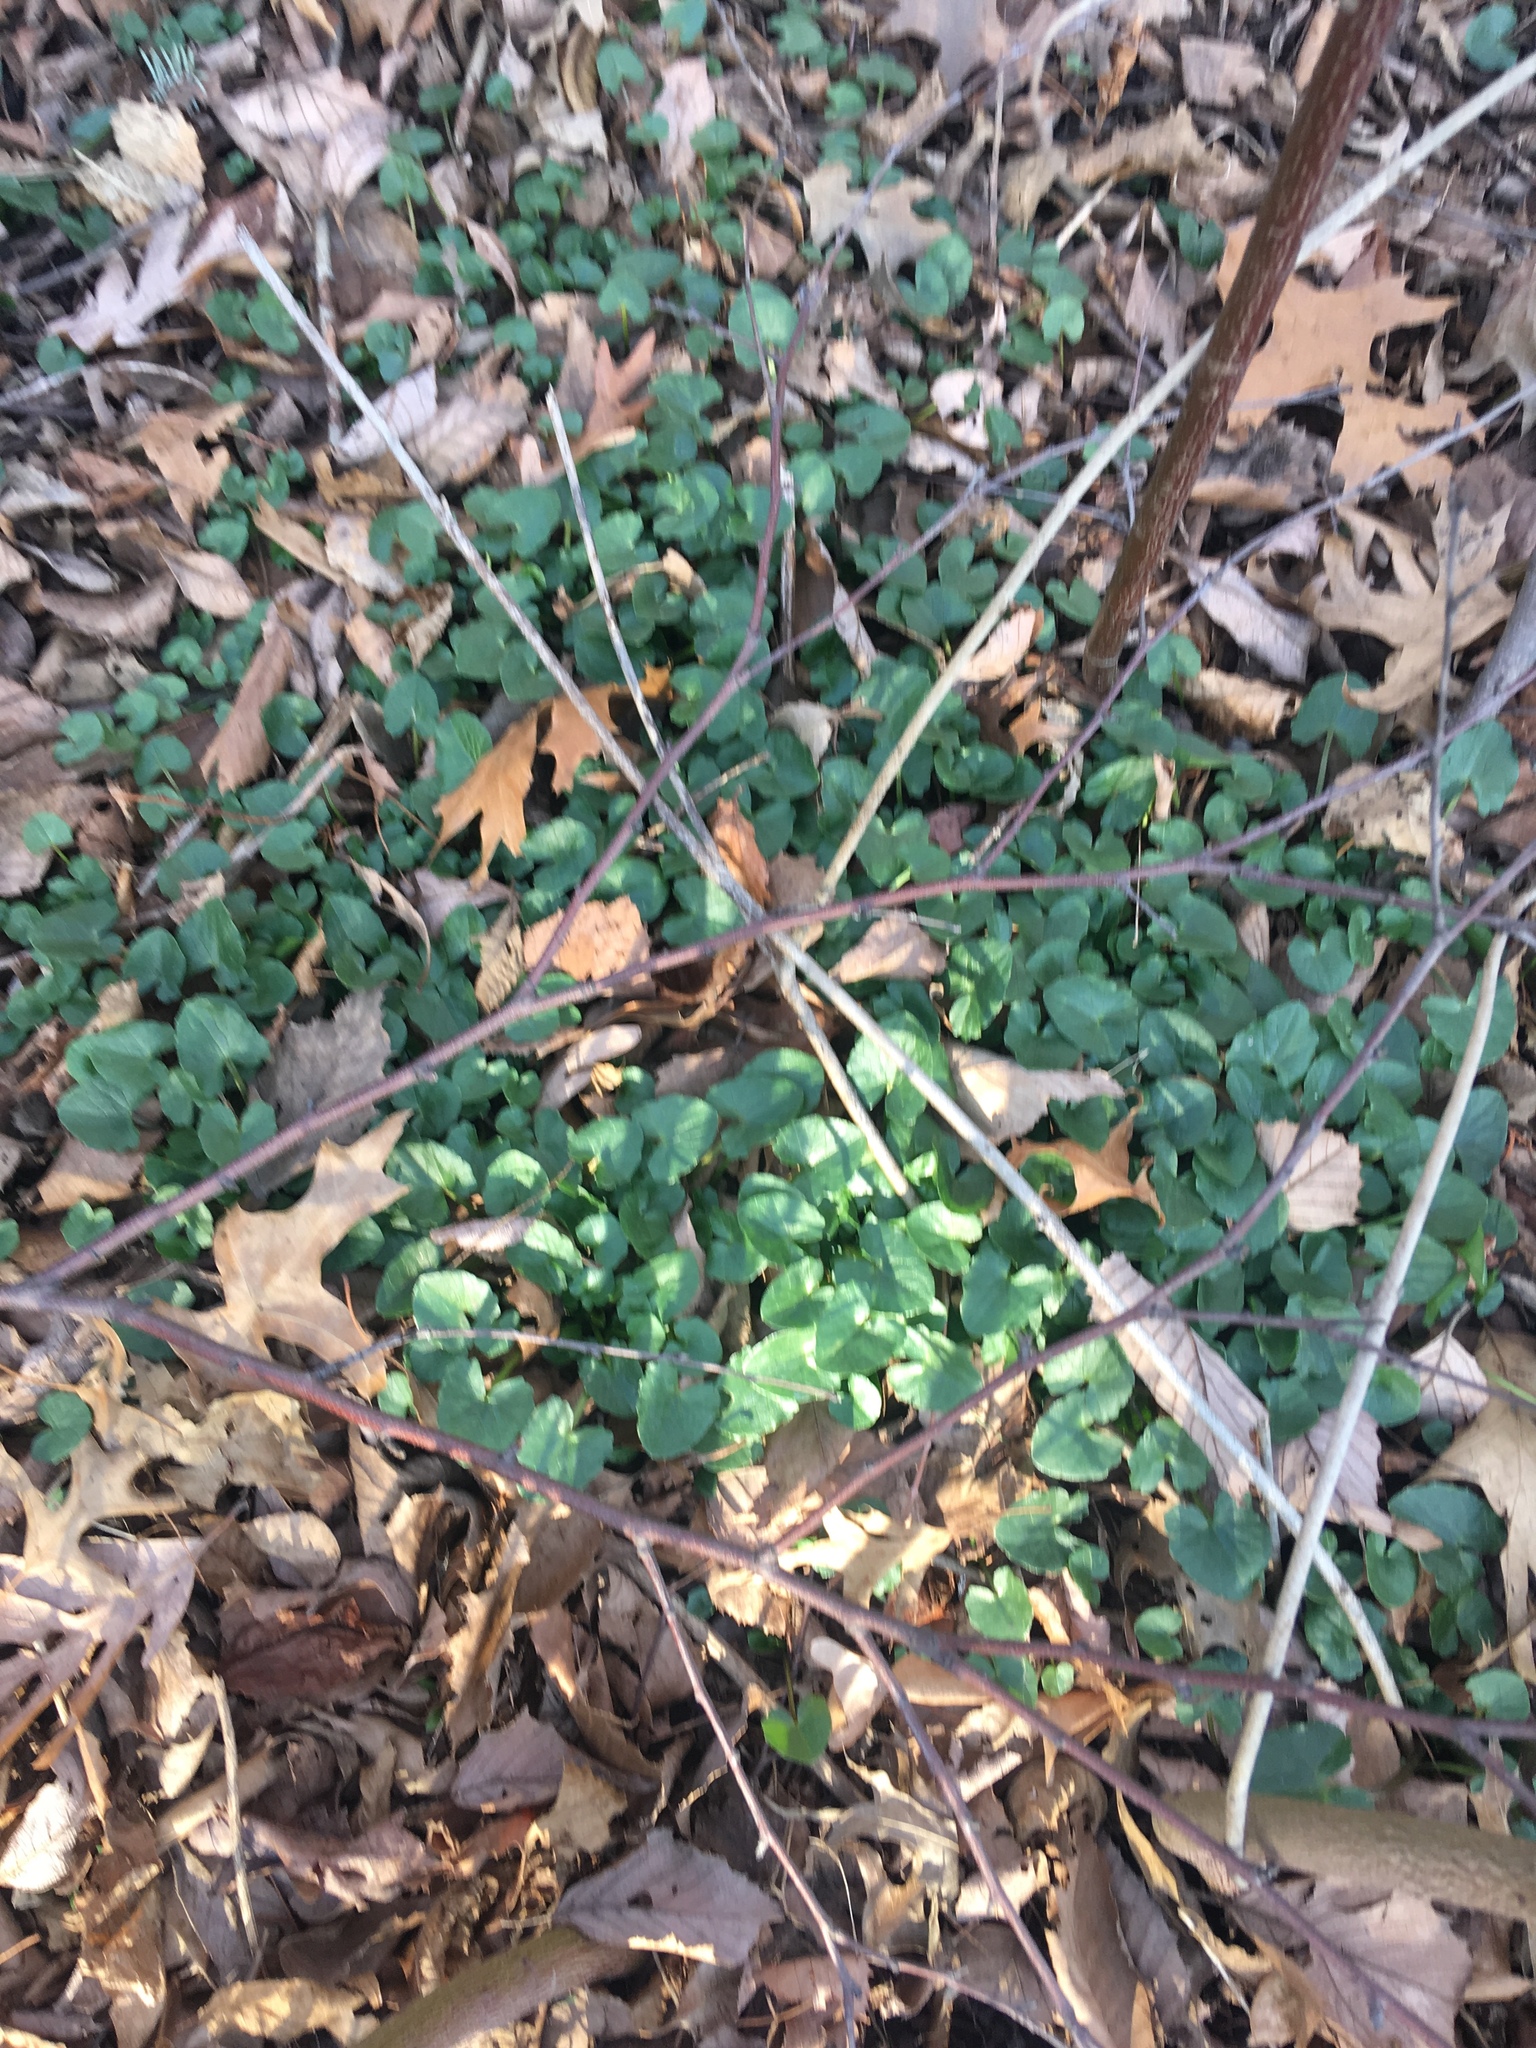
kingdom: Plantae
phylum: Tracheophyta
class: Magnoliopsida
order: Ranunculales
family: Ranunculaceae
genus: Ficaria
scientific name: Ficaria verna
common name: Lesser celandine
